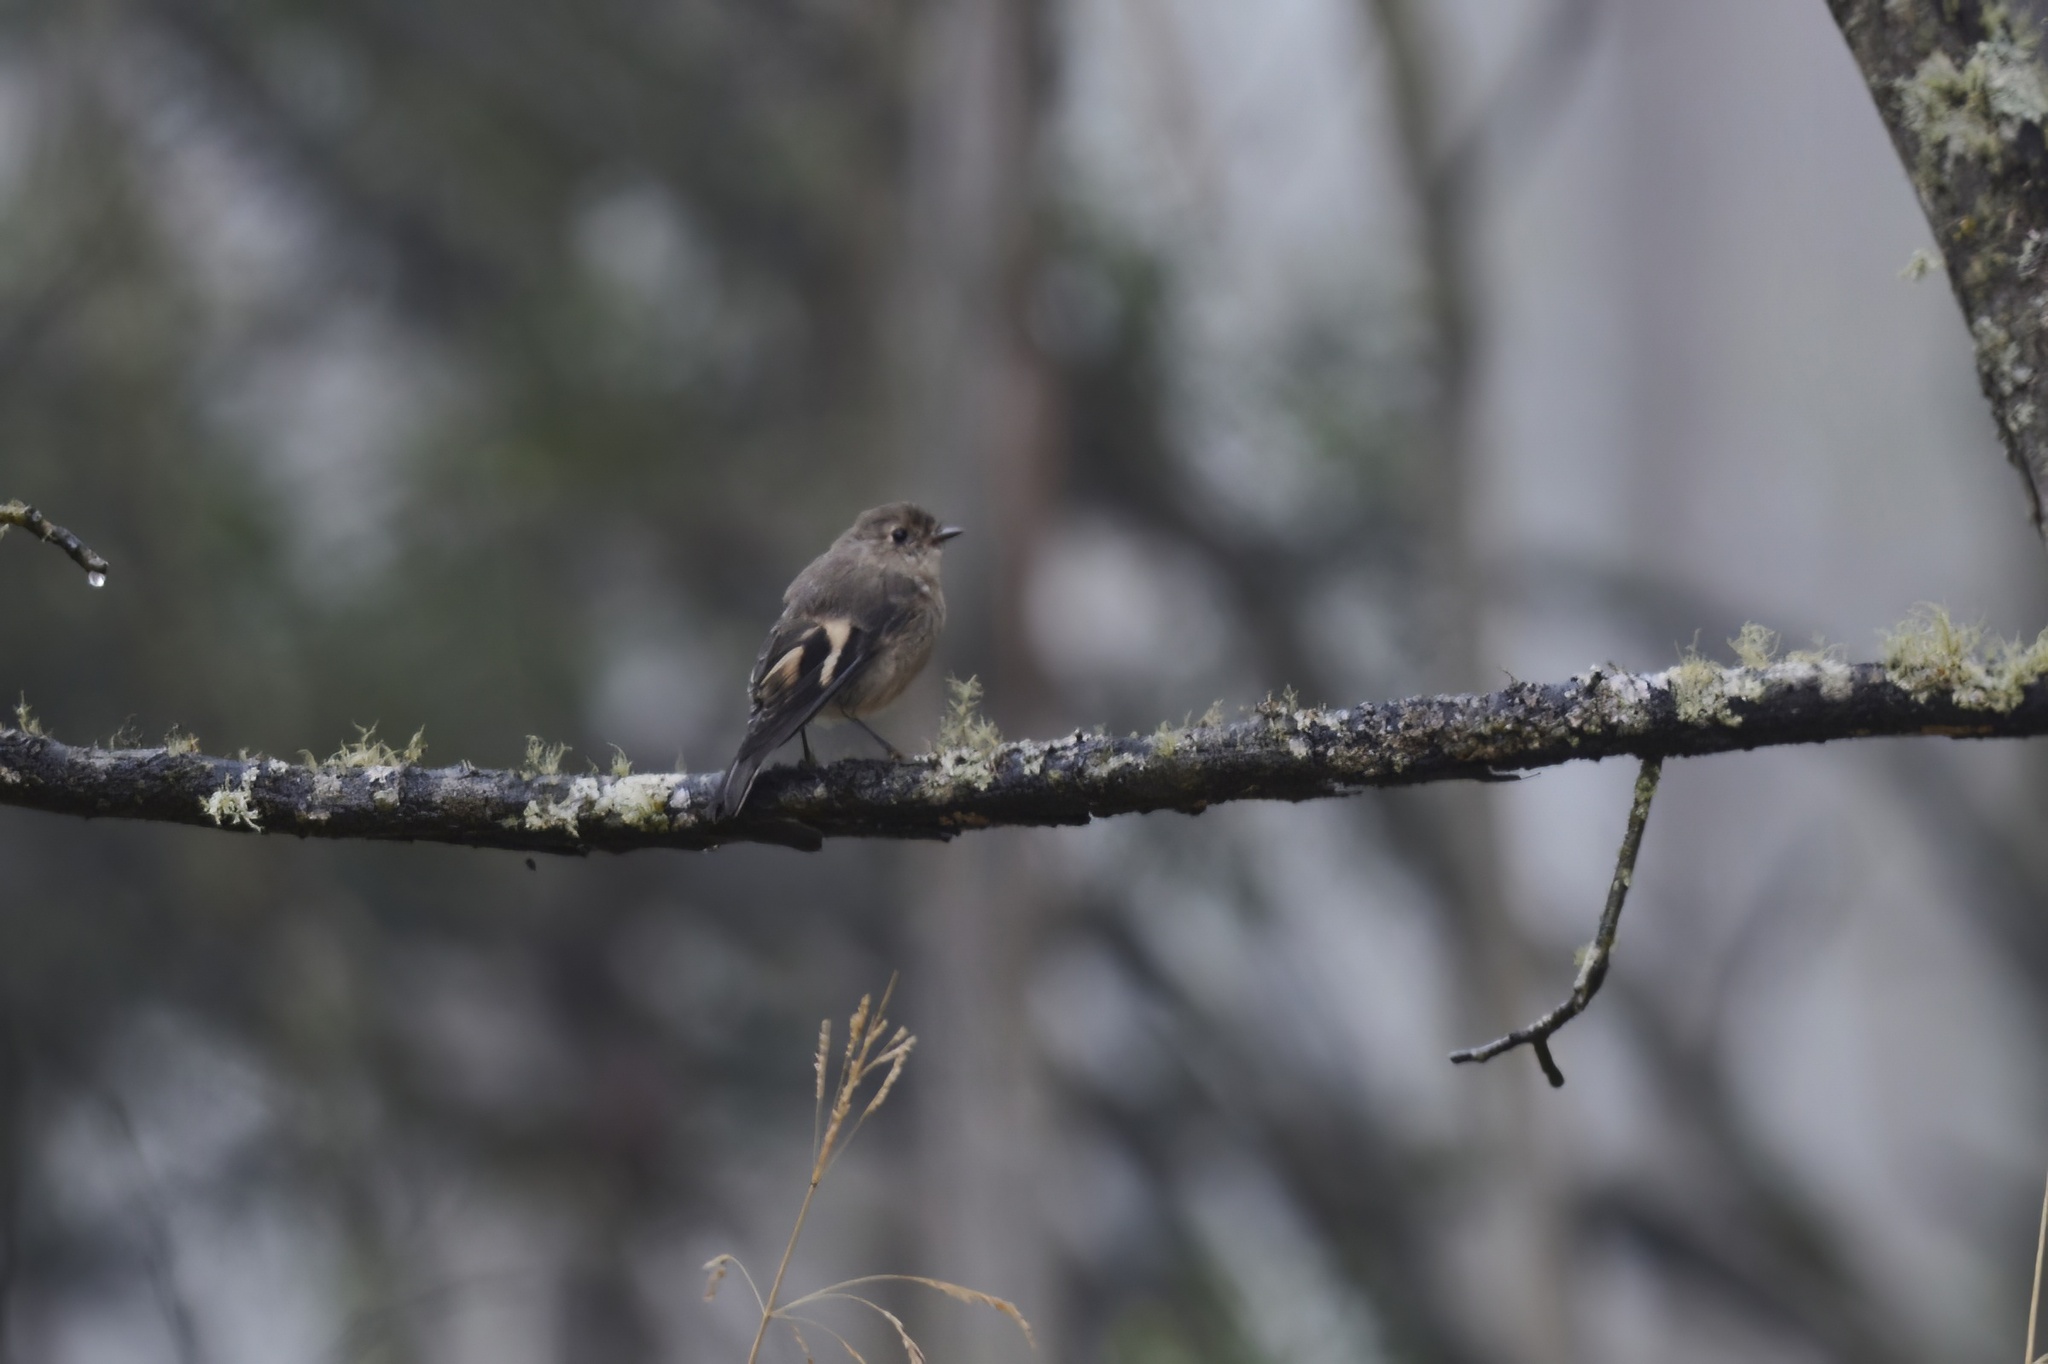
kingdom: Animalia
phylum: Chordata
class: Aves
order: Passeriformes
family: Petroicidae
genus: Petroica
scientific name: Petroica phoenicea
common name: Flame robin
